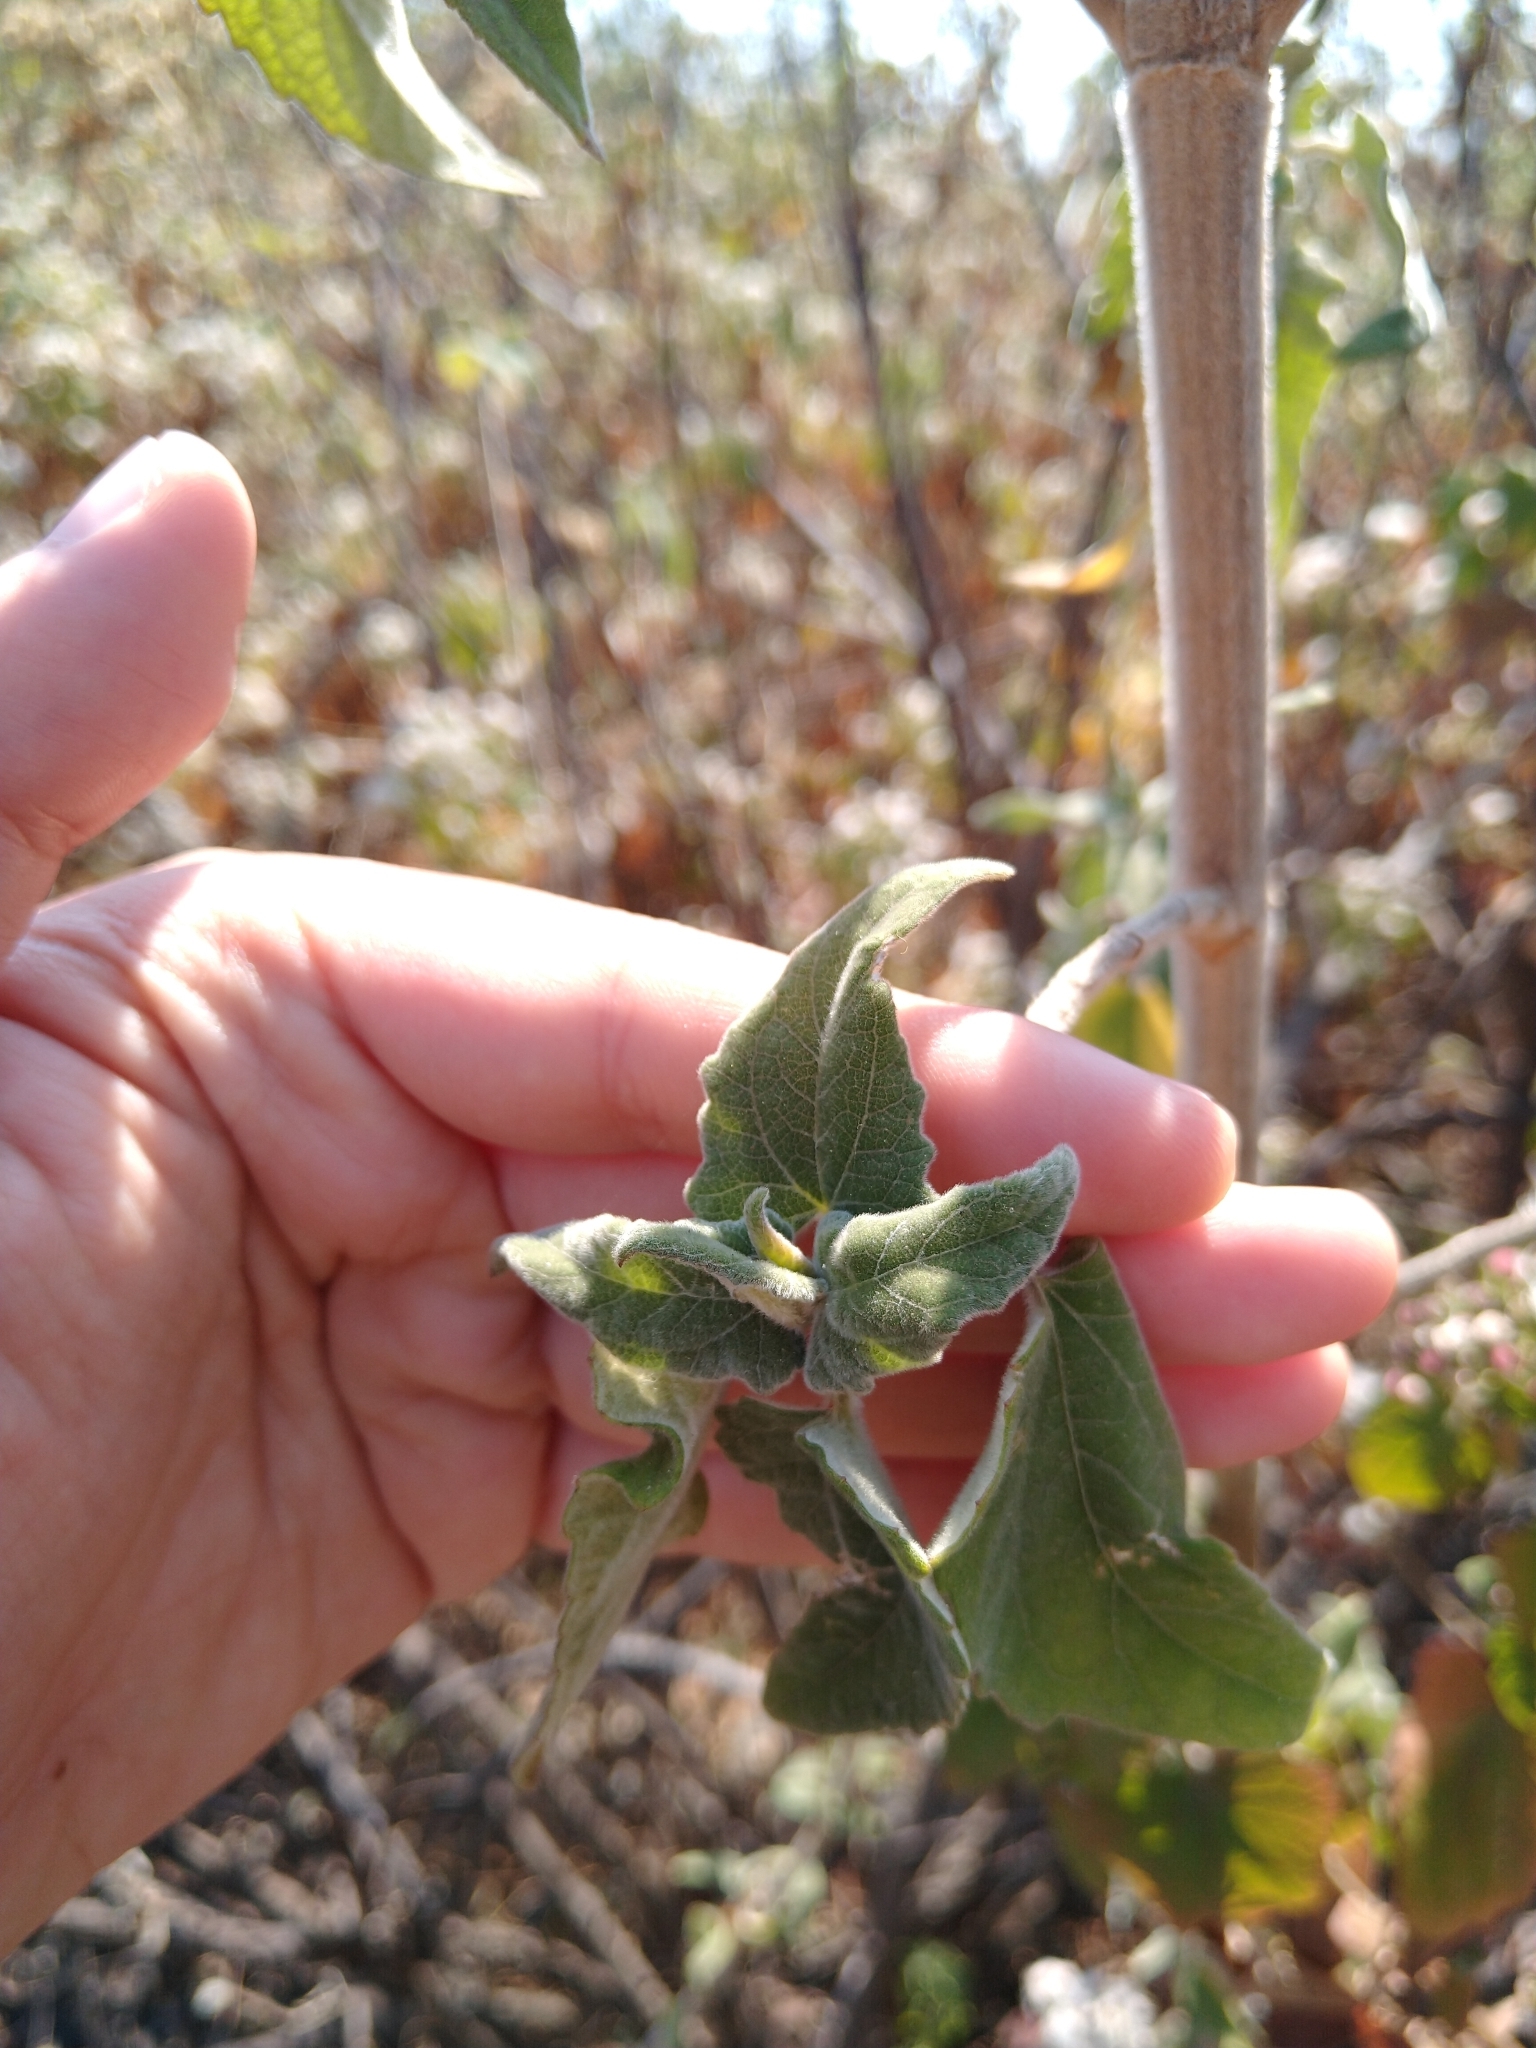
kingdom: Plantae
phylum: Tracheophyta
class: Magnoliopsida
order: Asterales
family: Asteraceae
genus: Ageratina
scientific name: Ageratina petiolaris
